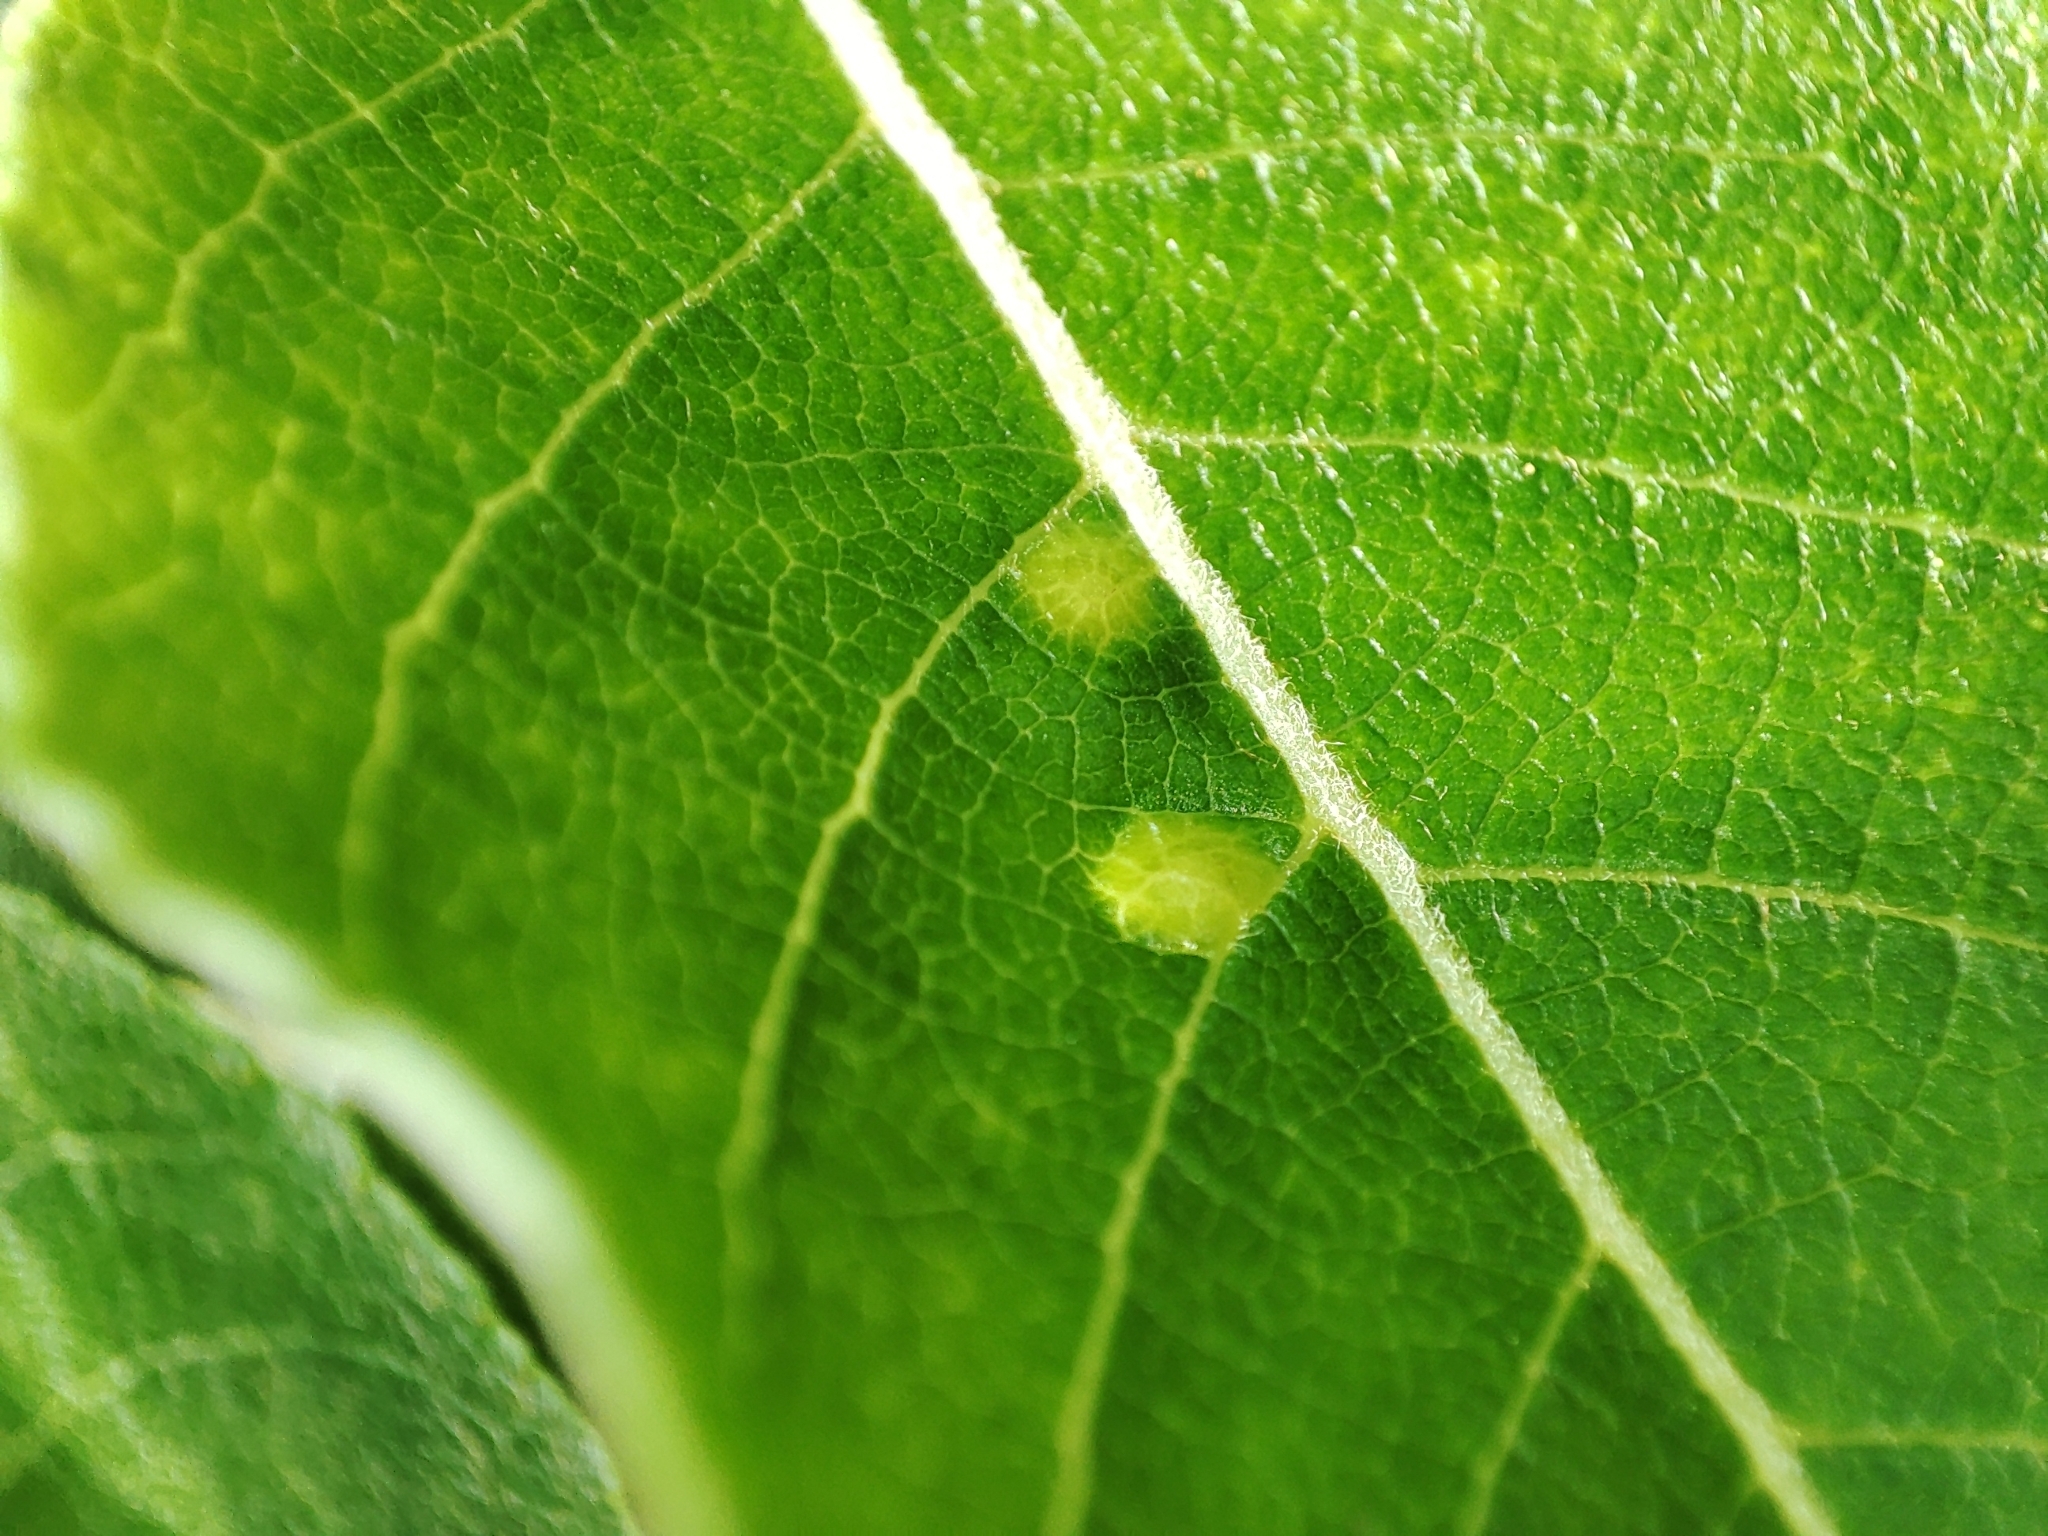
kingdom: Plantae
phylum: Tracheophyta
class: Magnoliopsida
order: Fagales
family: Betulaceae
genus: Alnus
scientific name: Alnus alnobetula
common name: Green alder
